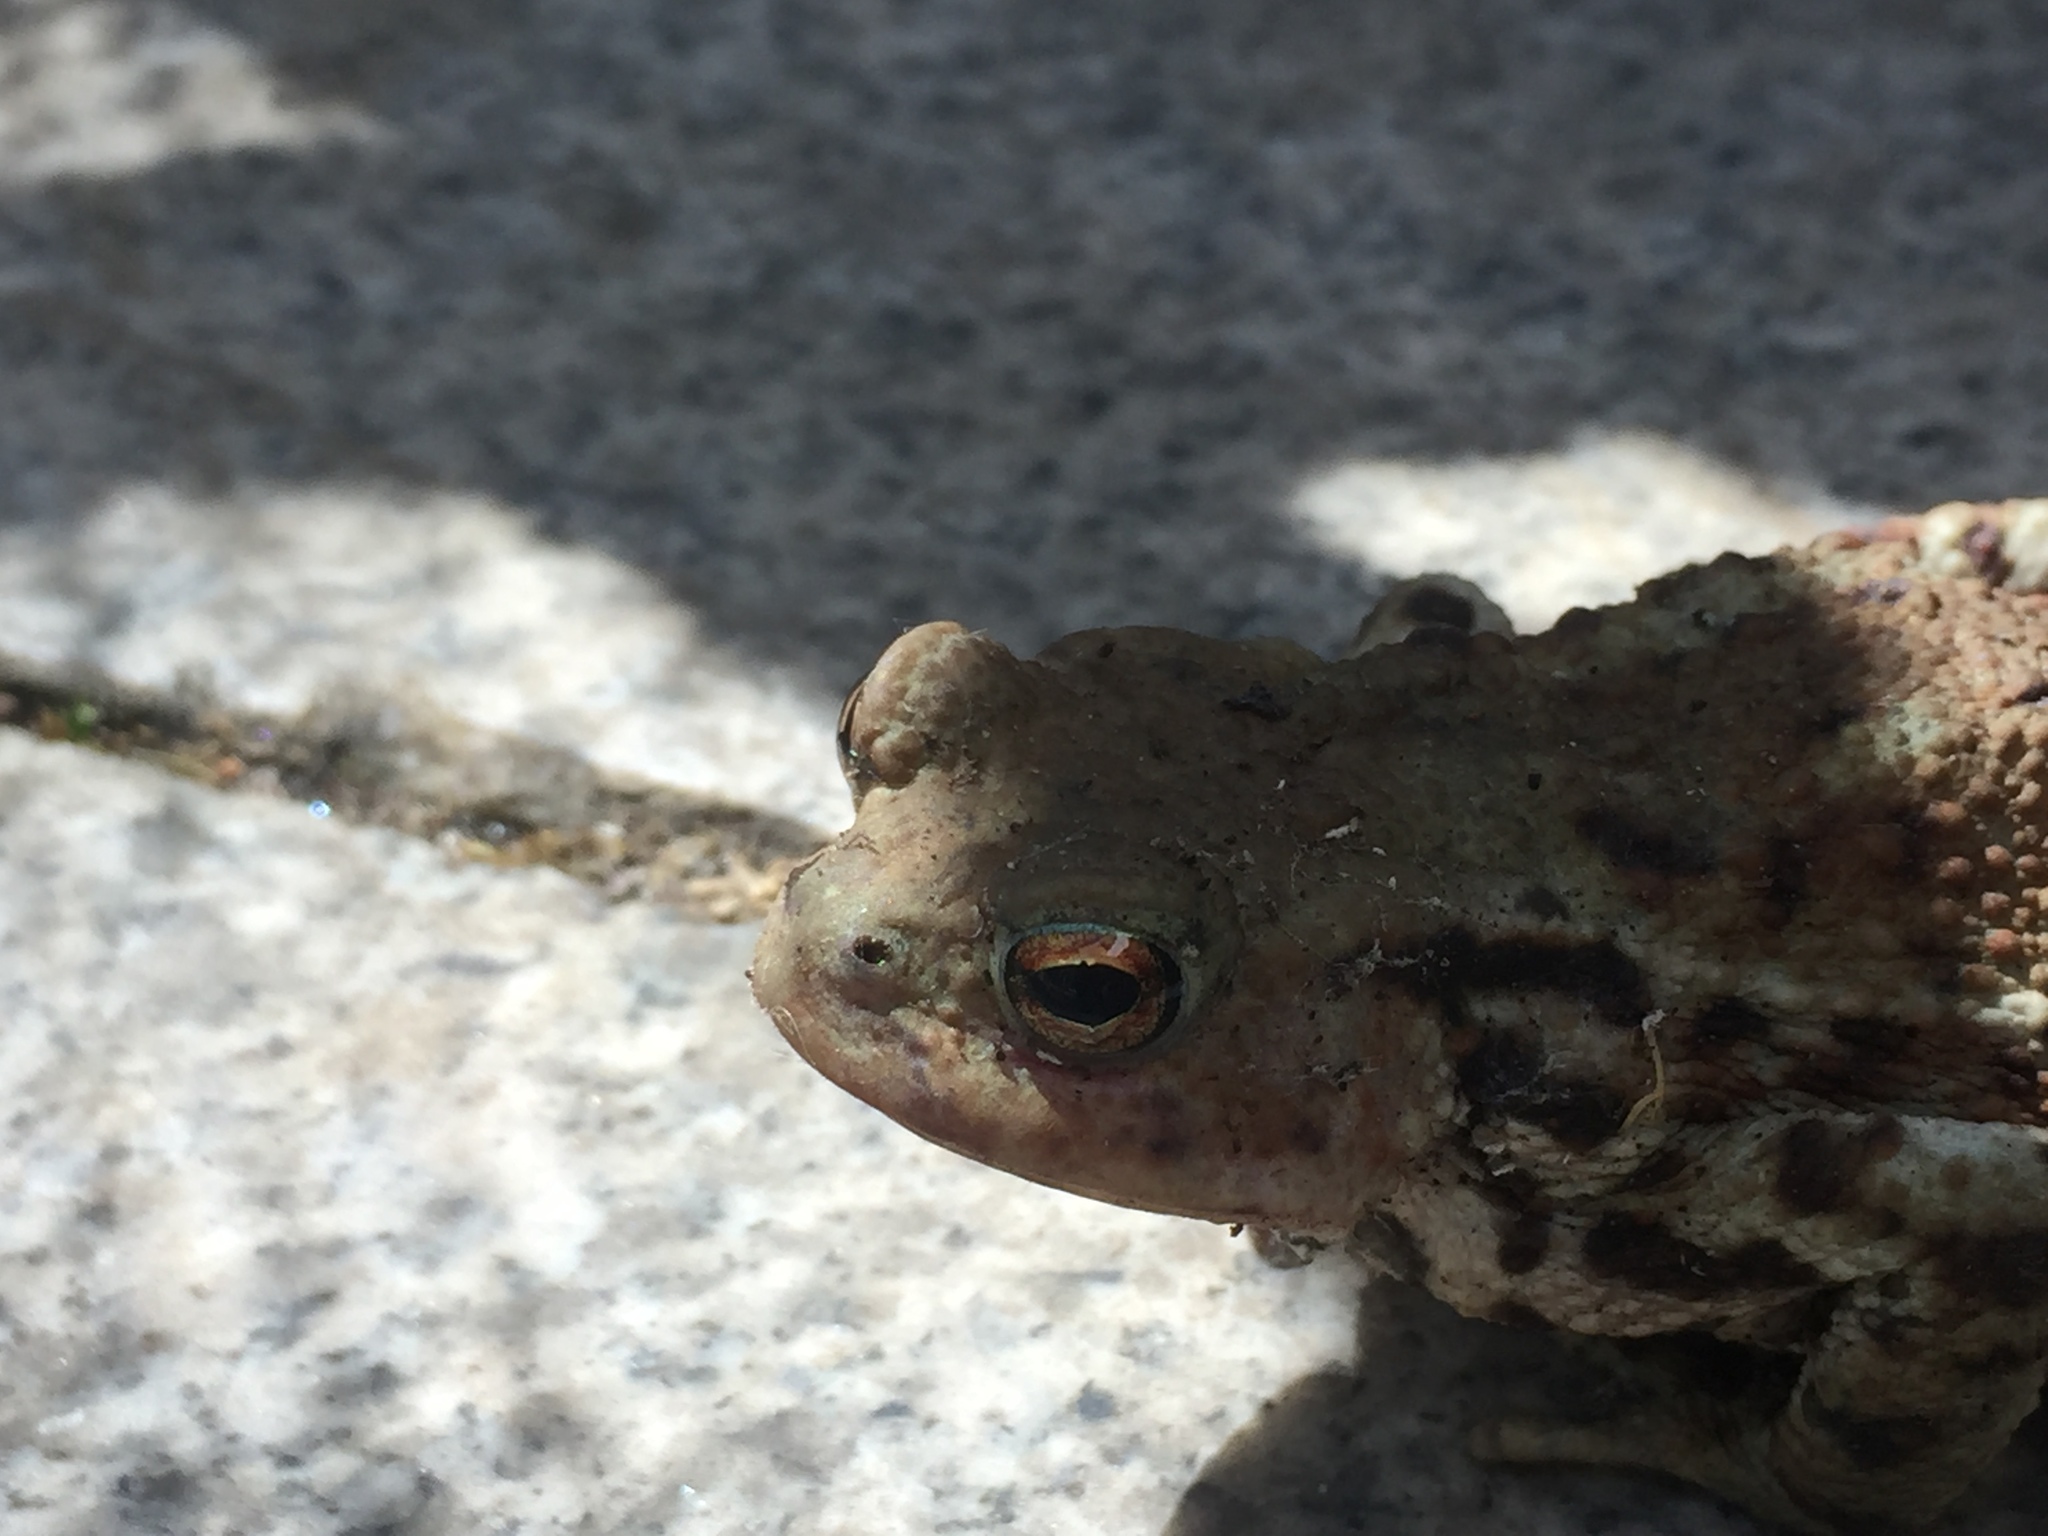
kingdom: Animalia
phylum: Chordata
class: Amphibia
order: Anura
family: Bufonidae
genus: Bufo
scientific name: Bufo bufo
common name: Common toad
